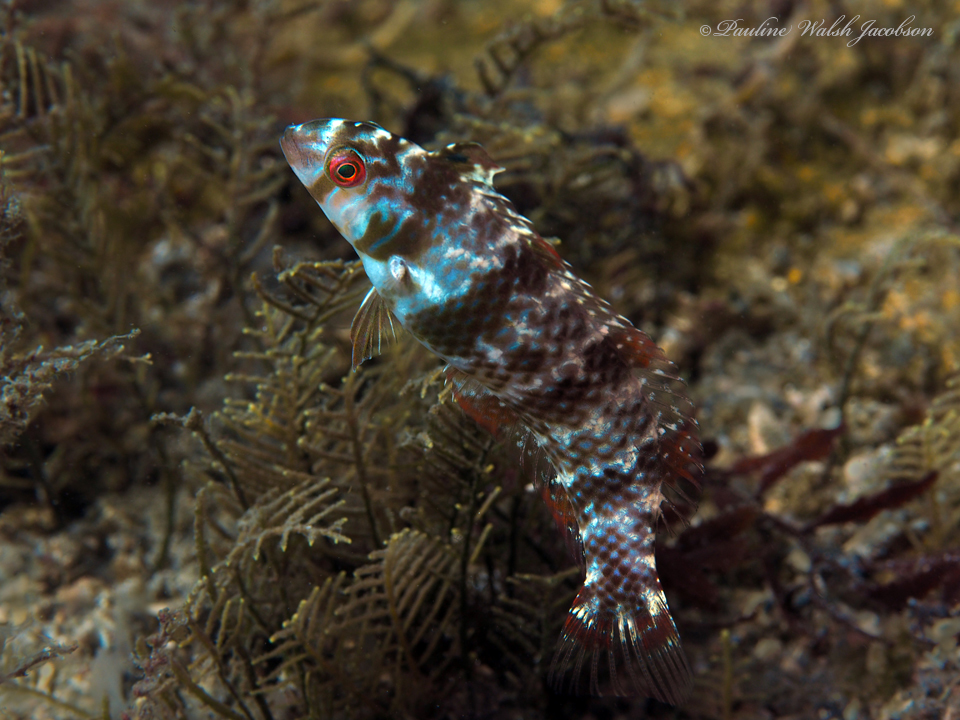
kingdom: Animalia
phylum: Chordata
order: Perciformes
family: Labridae
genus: Xyrichtys
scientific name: Xyrichtys splendens
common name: Green razorfish
